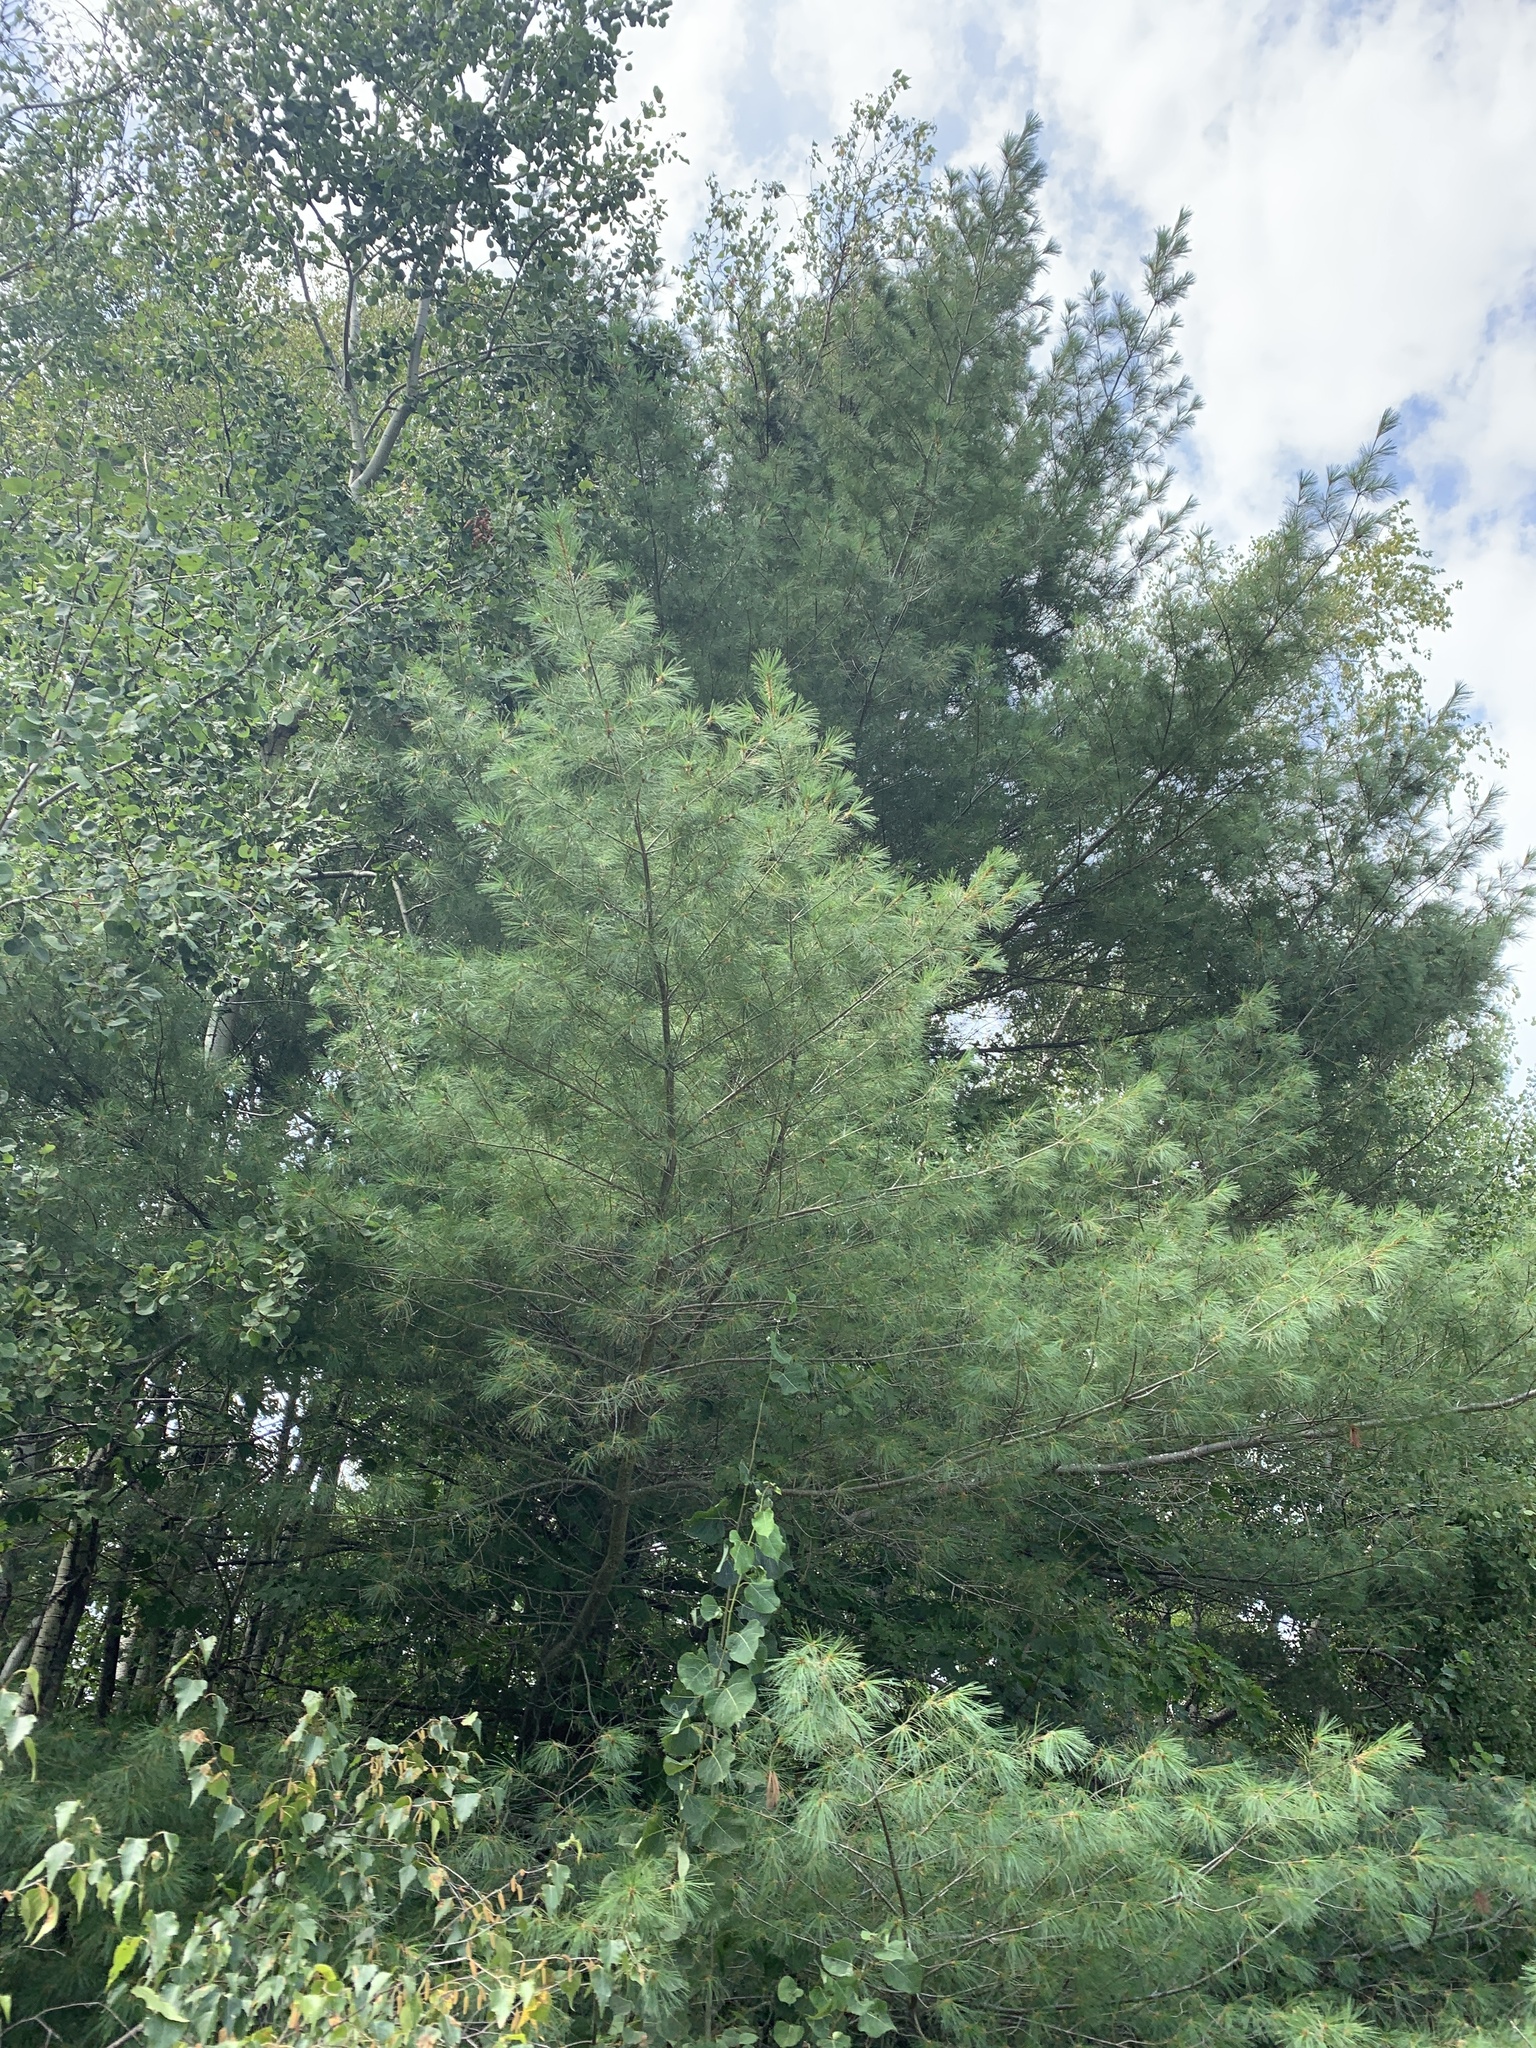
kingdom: Plantae
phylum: Tracheophyta
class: Pinopsida
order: Pinales
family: Pinaceae
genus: Pinus
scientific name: Pinus strobus
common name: Weymouth pine
